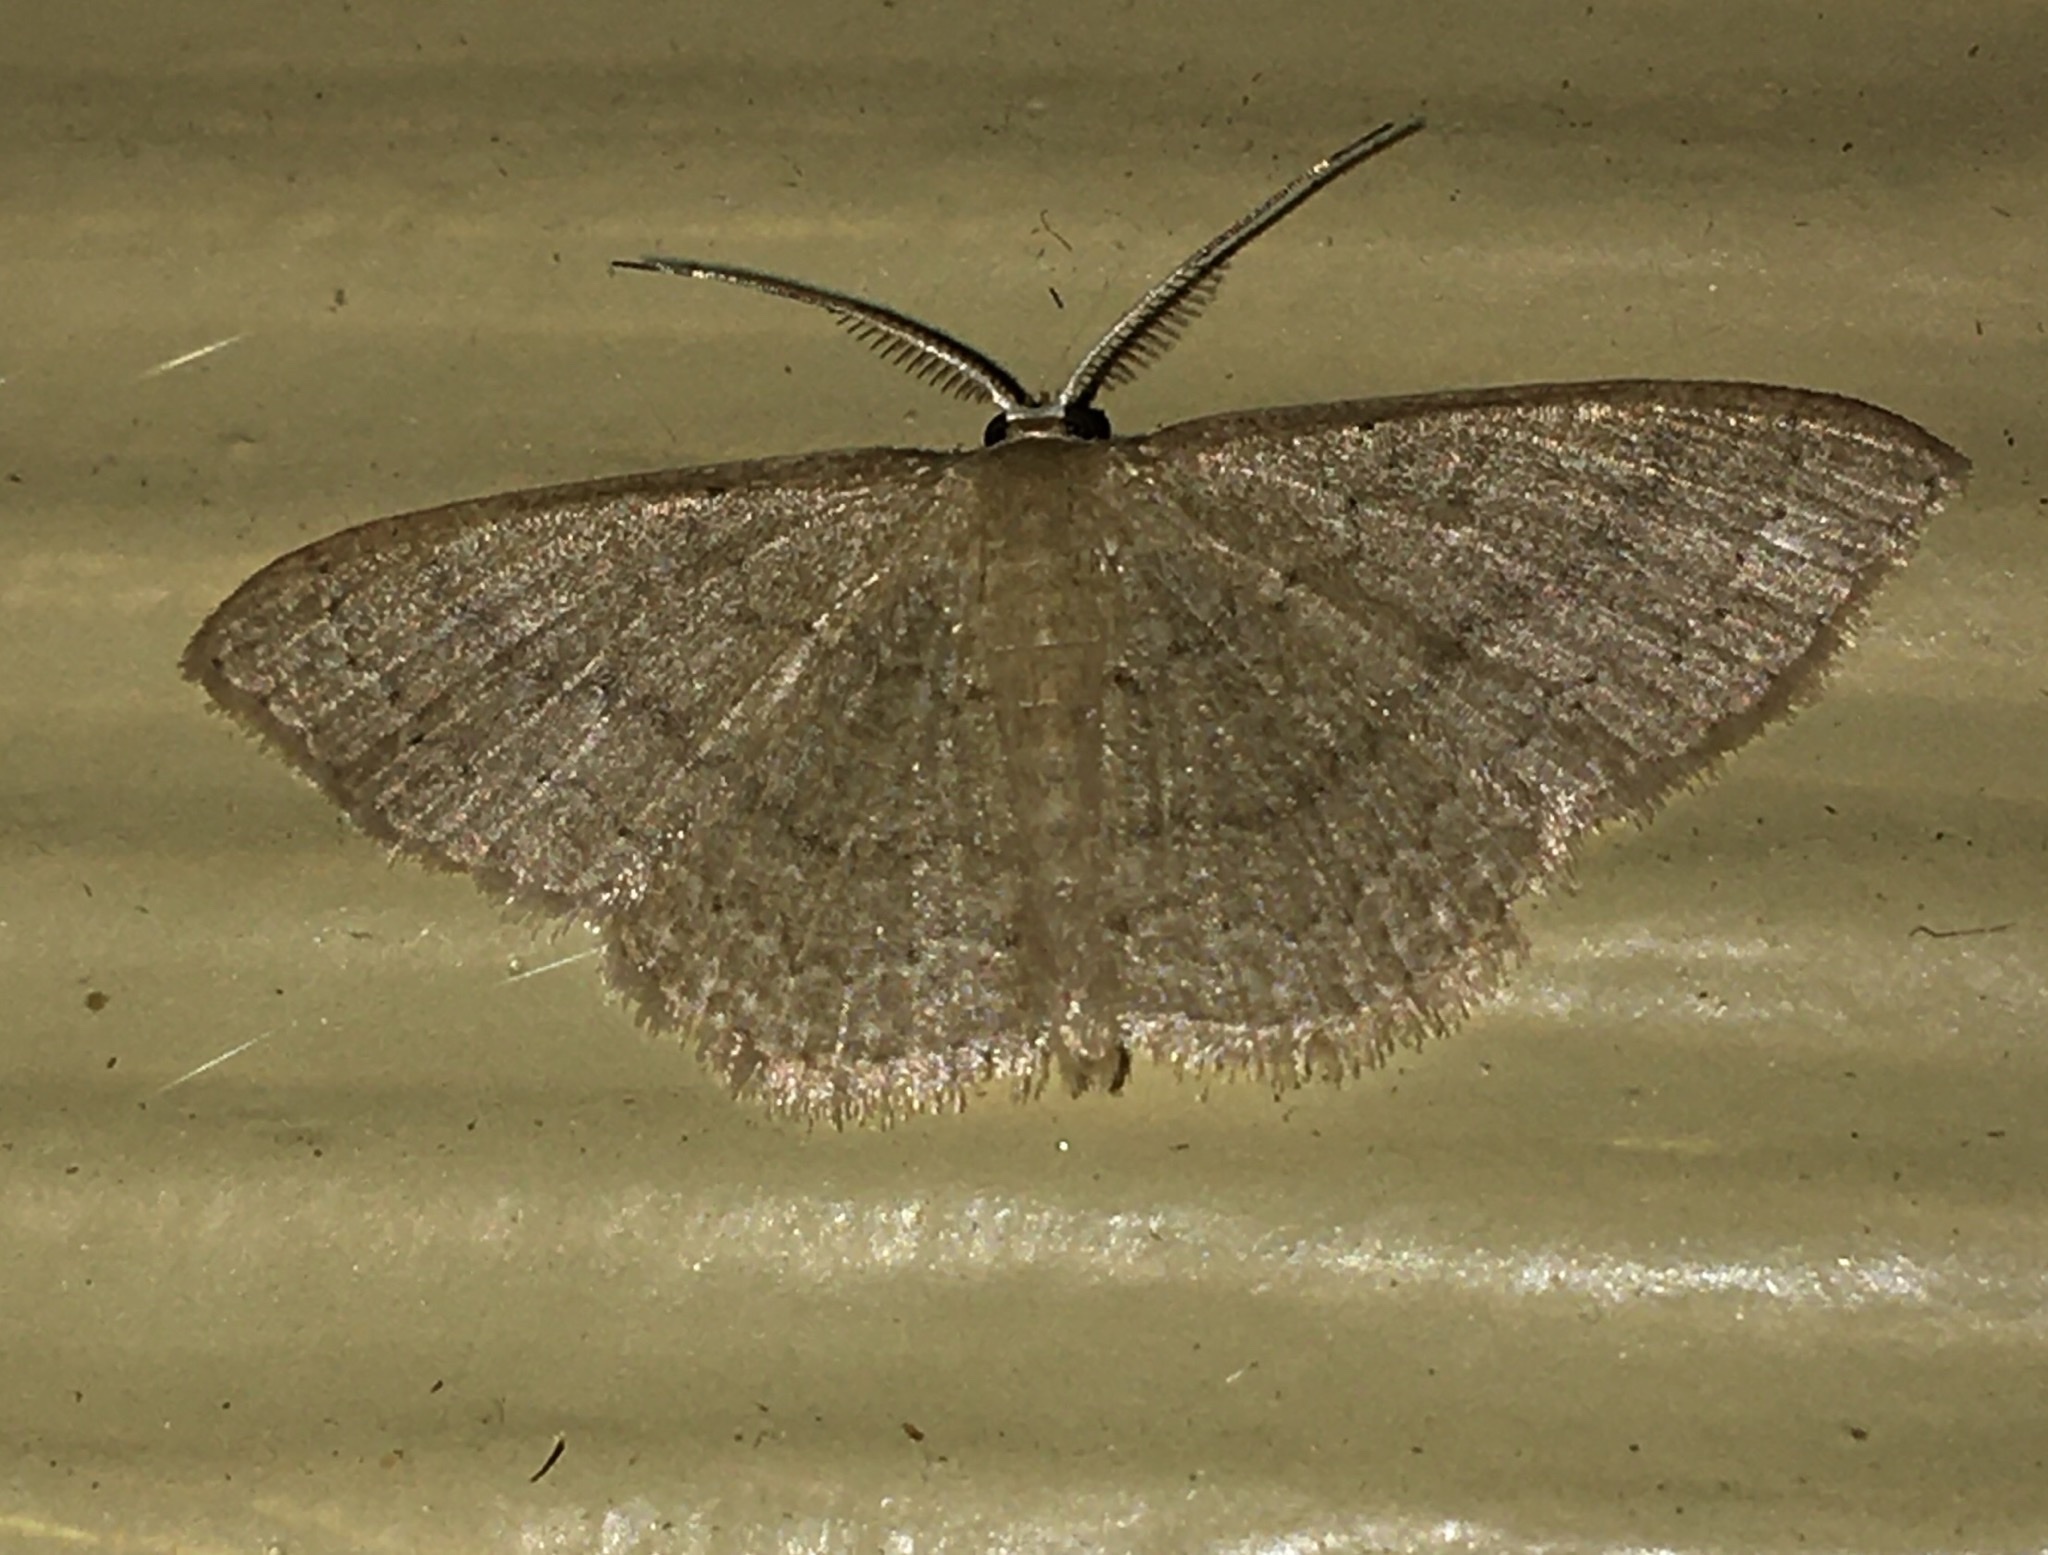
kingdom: Animalia
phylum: Arthropoda
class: Insecta
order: Lepidoptera
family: Geometridae
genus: Pleuroprucha
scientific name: Pleuroprucha insulsaria
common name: Common tan wave
